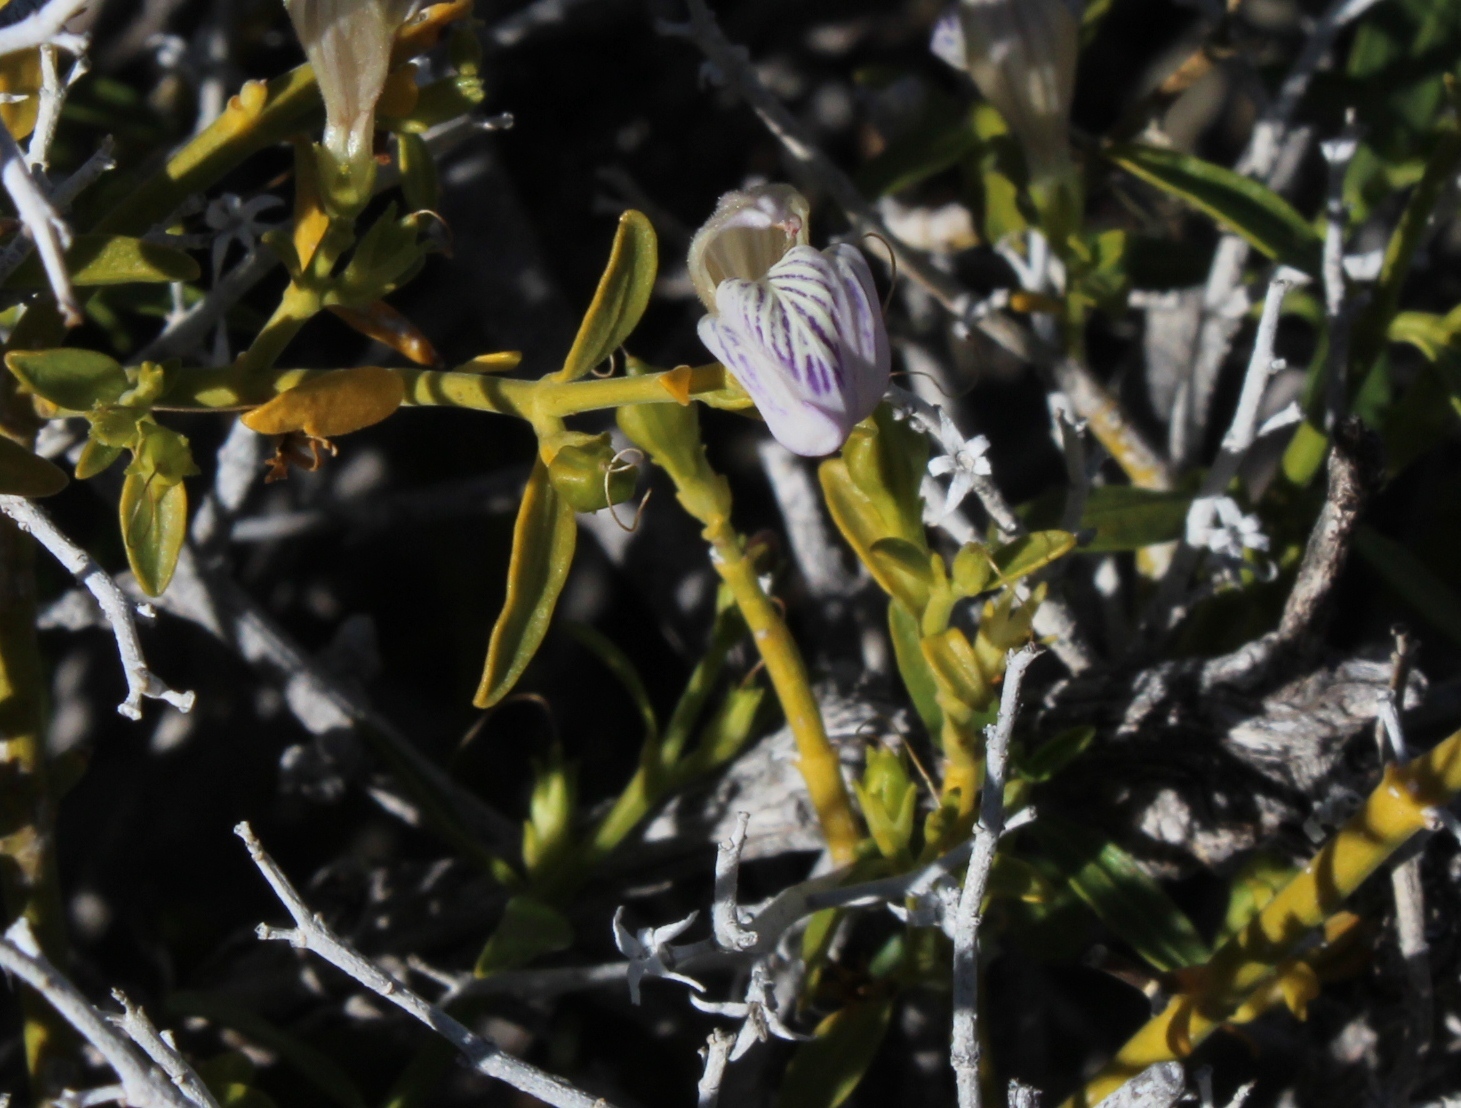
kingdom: Plantae
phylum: Tracheophyta
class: Magnoliopsida
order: Lamiales
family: Acanthaceae
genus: Pogonospermum
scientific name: Pogonospermum
